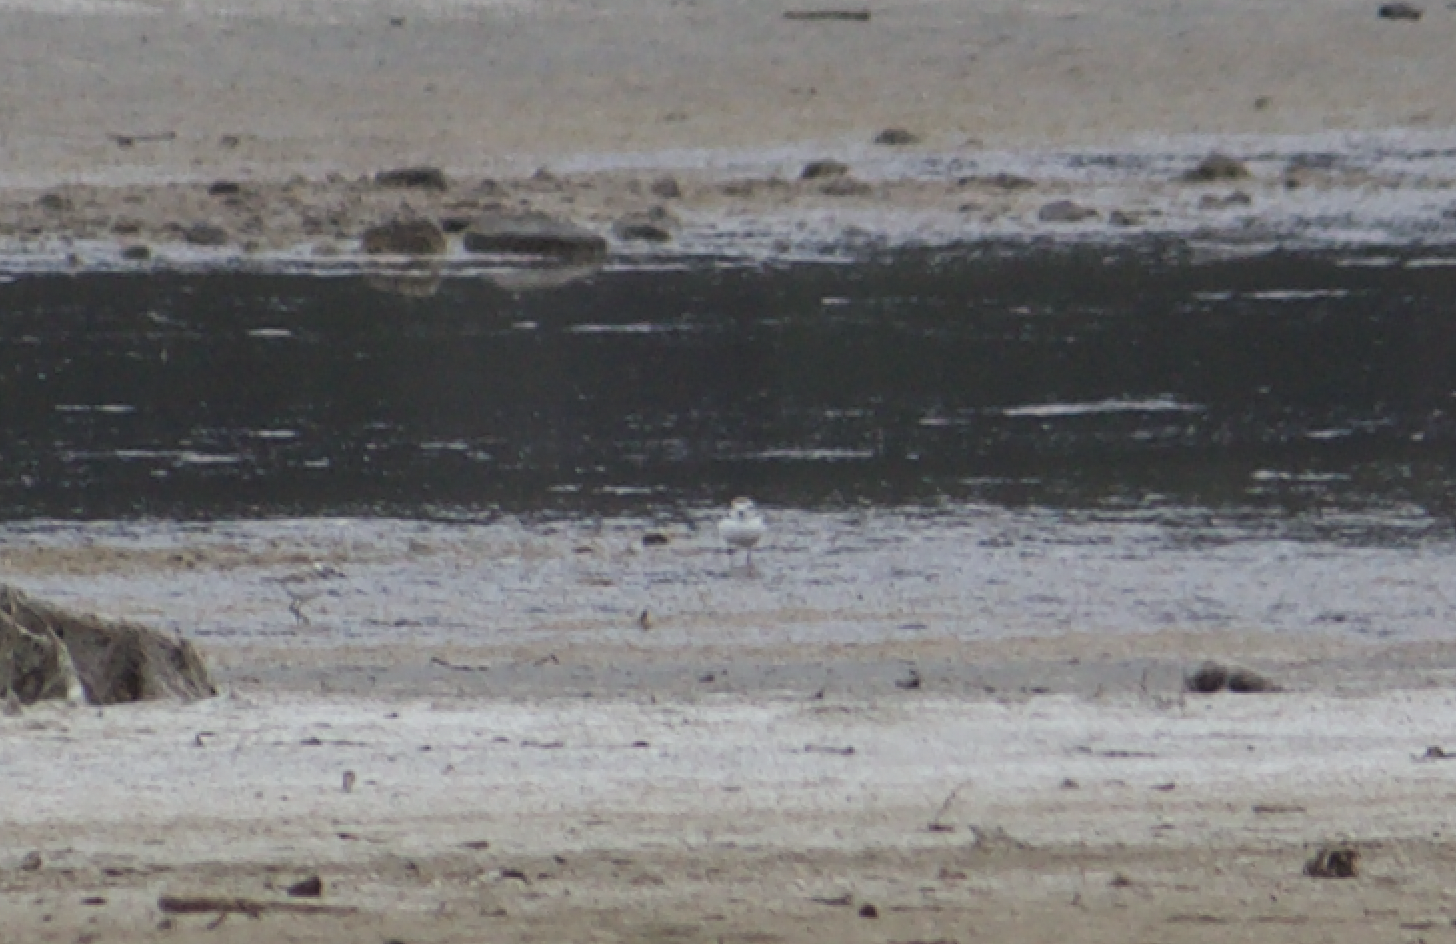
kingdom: Animalia
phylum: Chordata
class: Aves
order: Charadriiformes
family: Charadriidae
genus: Anarhynchus
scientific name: Anarhynchus
